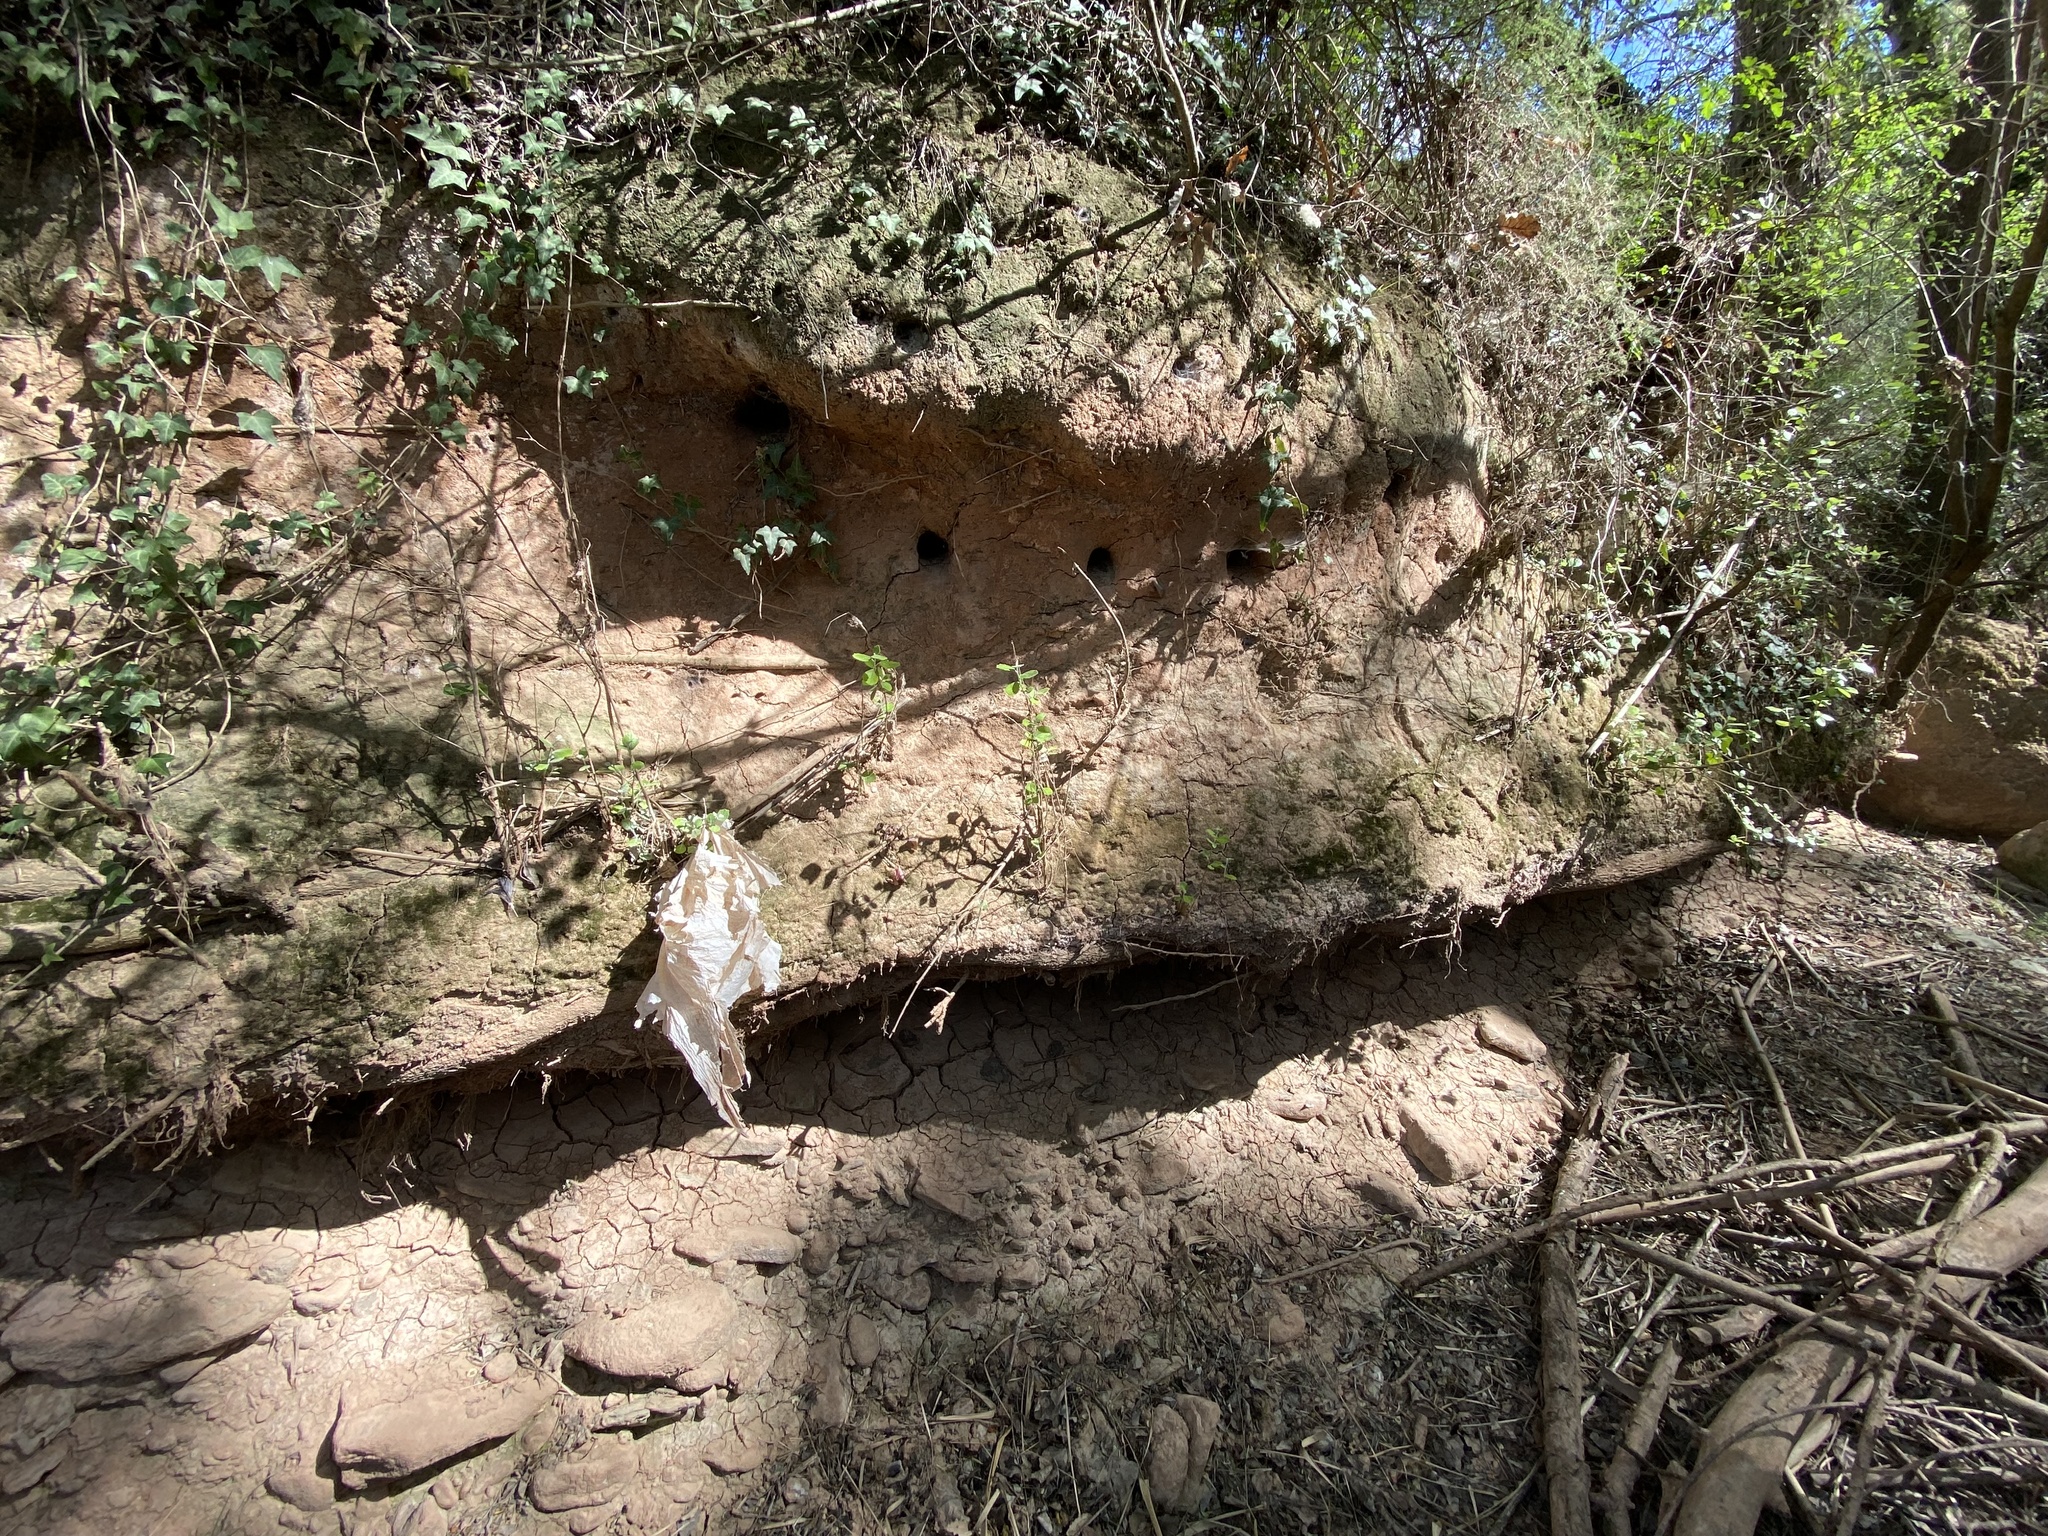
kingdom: Animalia
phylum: Chordata
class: Aves
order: Coraciiformes
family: Meropidae
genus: Merops
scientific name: Merops apiaster
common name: European bee-eater
